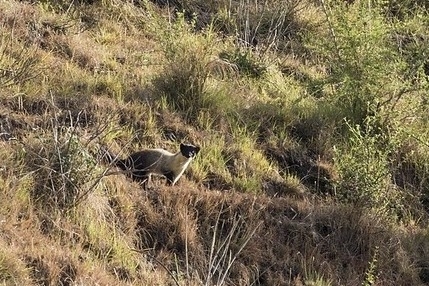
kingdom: Animalia
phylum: Chordata
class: Mammalia
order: Carnivora
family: Mustelidae
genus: Martes
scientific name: Martes flavigula
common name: Yellow-throated marten
